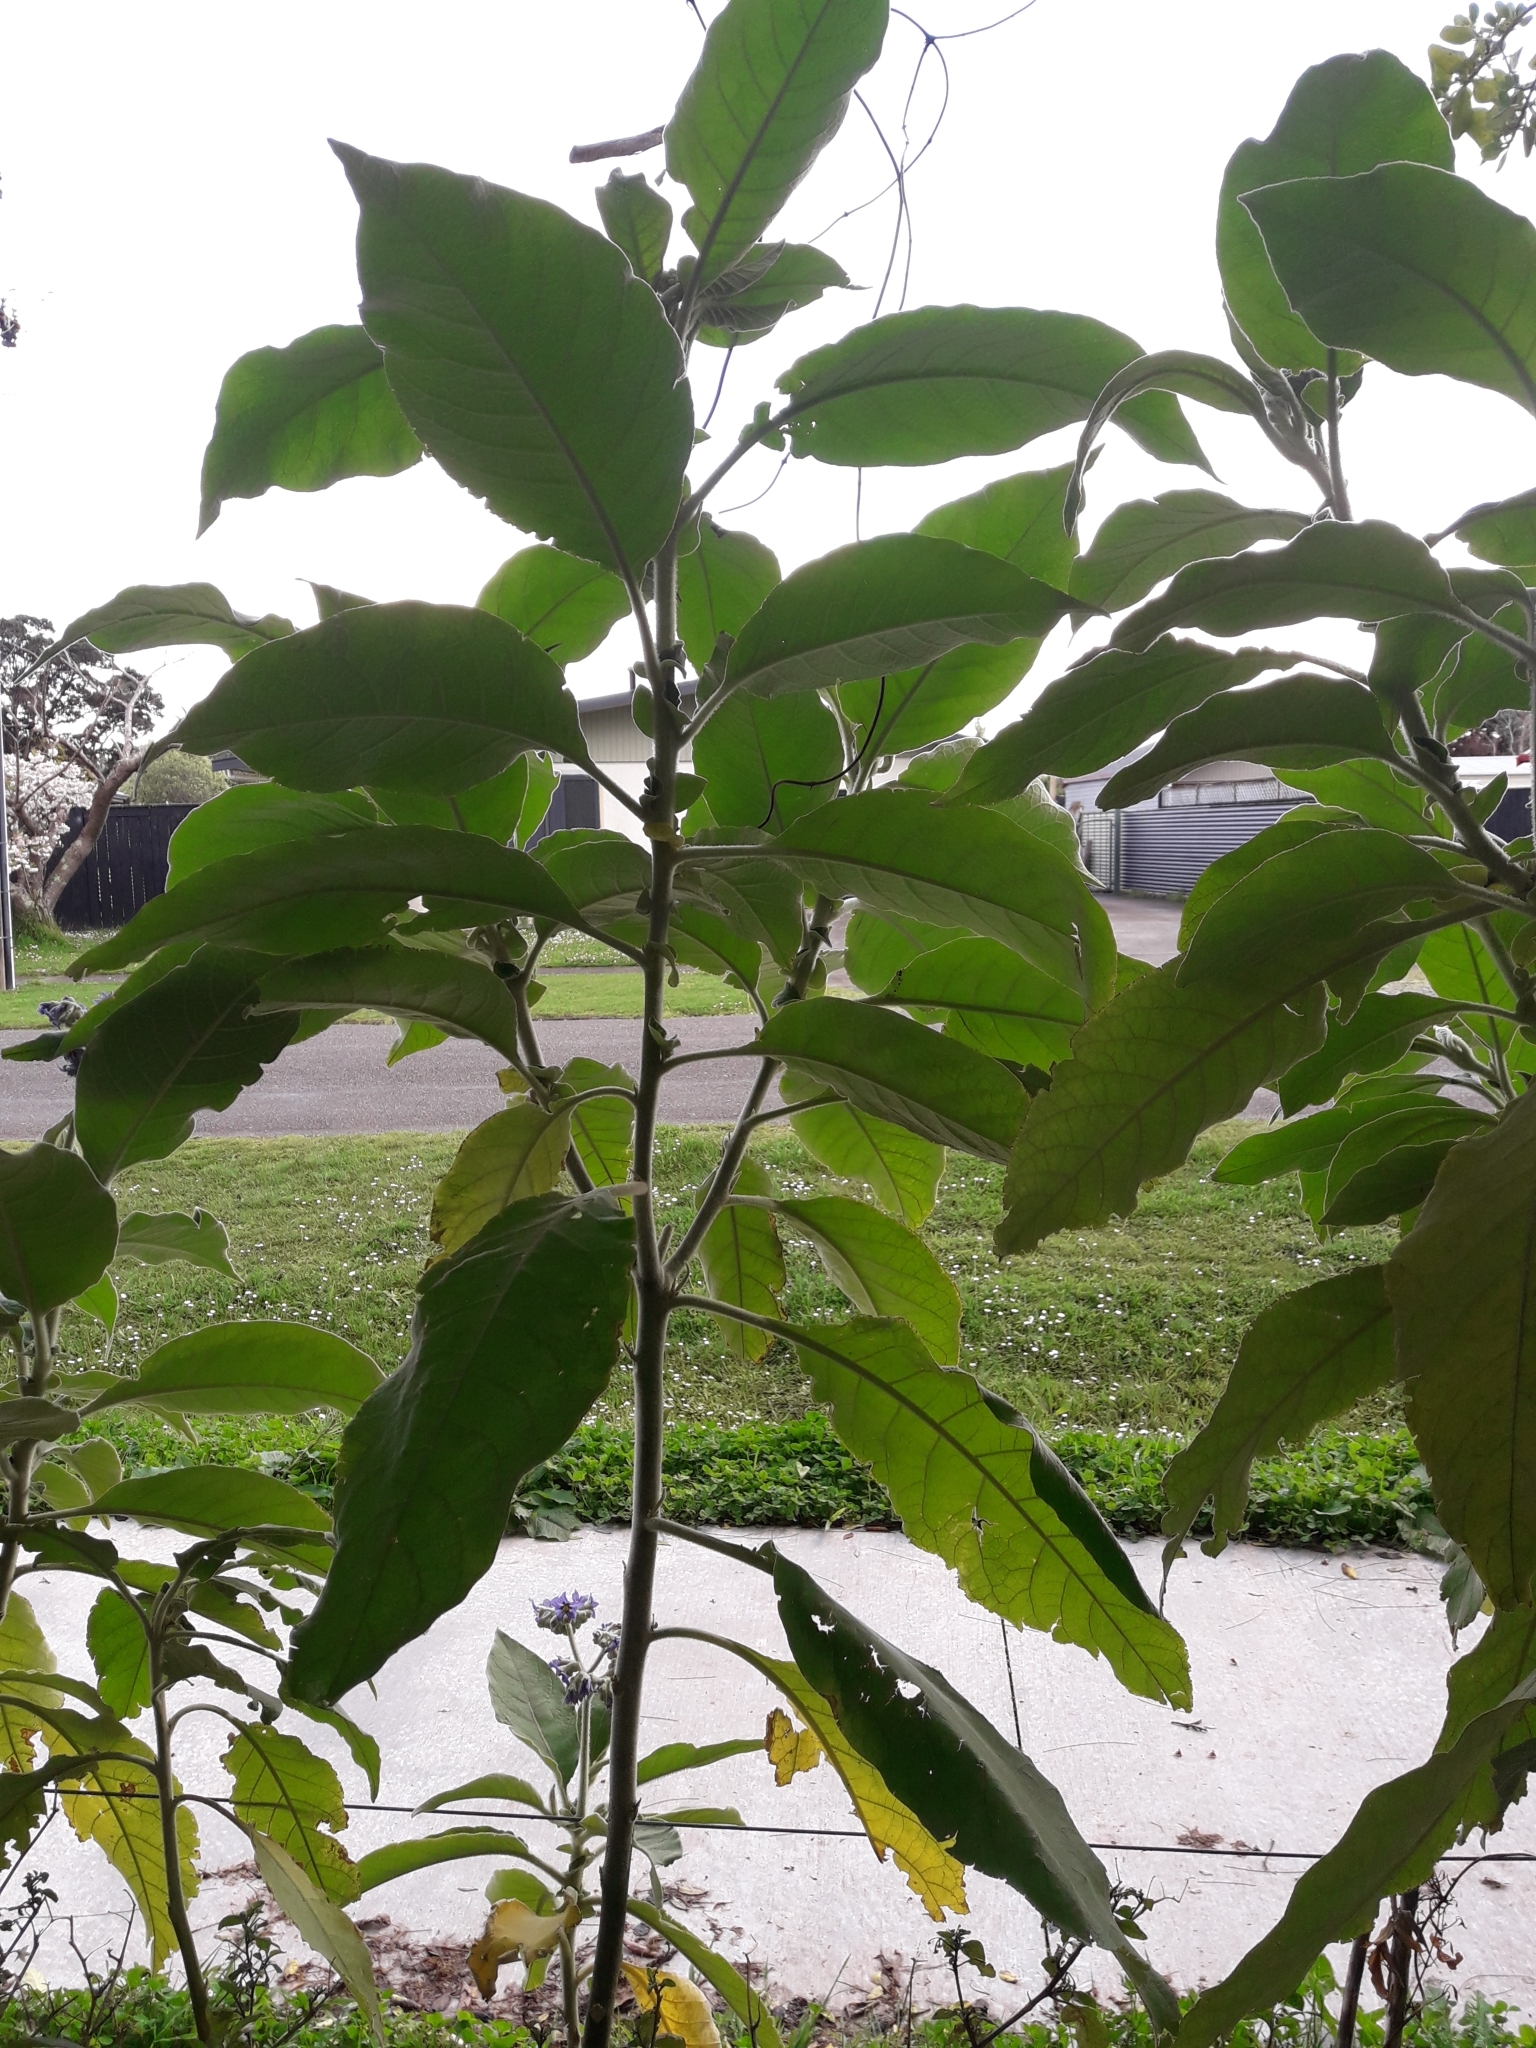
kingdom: Plantae
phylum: Tracheophyta
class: Magnoliopsida
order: Solanales
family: Solanaceae
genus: Solanum
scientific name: Solanum mauritianum
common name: Earleaf nightshade
